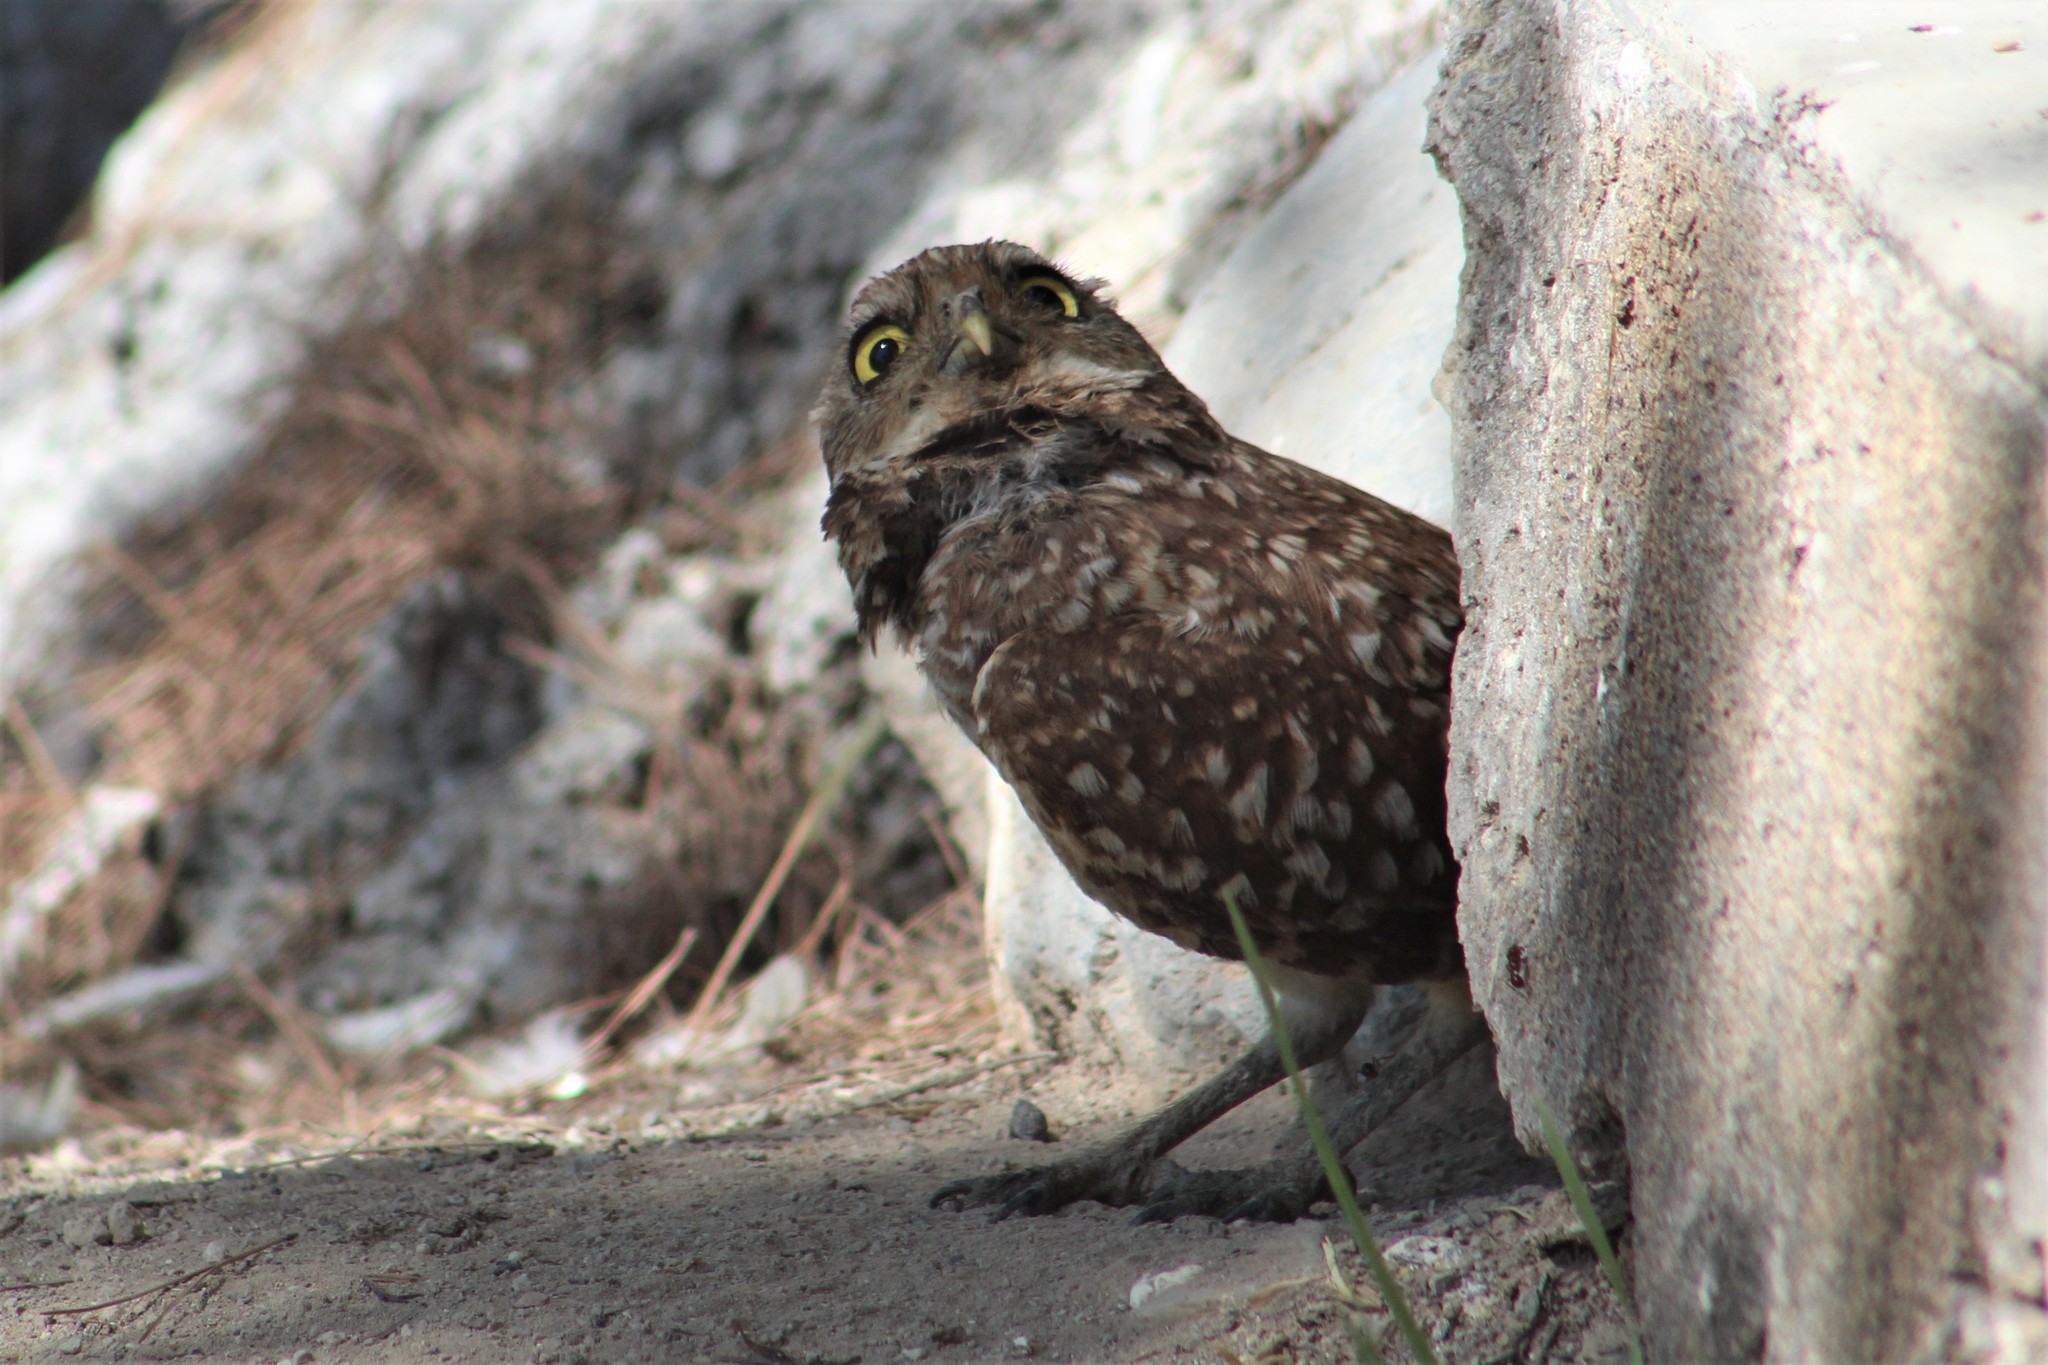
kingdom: Animalia
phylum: Chordata
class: Aves
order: Strigiformes
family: Strigidae
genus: Athene
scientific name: Athene cunicularia
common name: Burrowing owl
